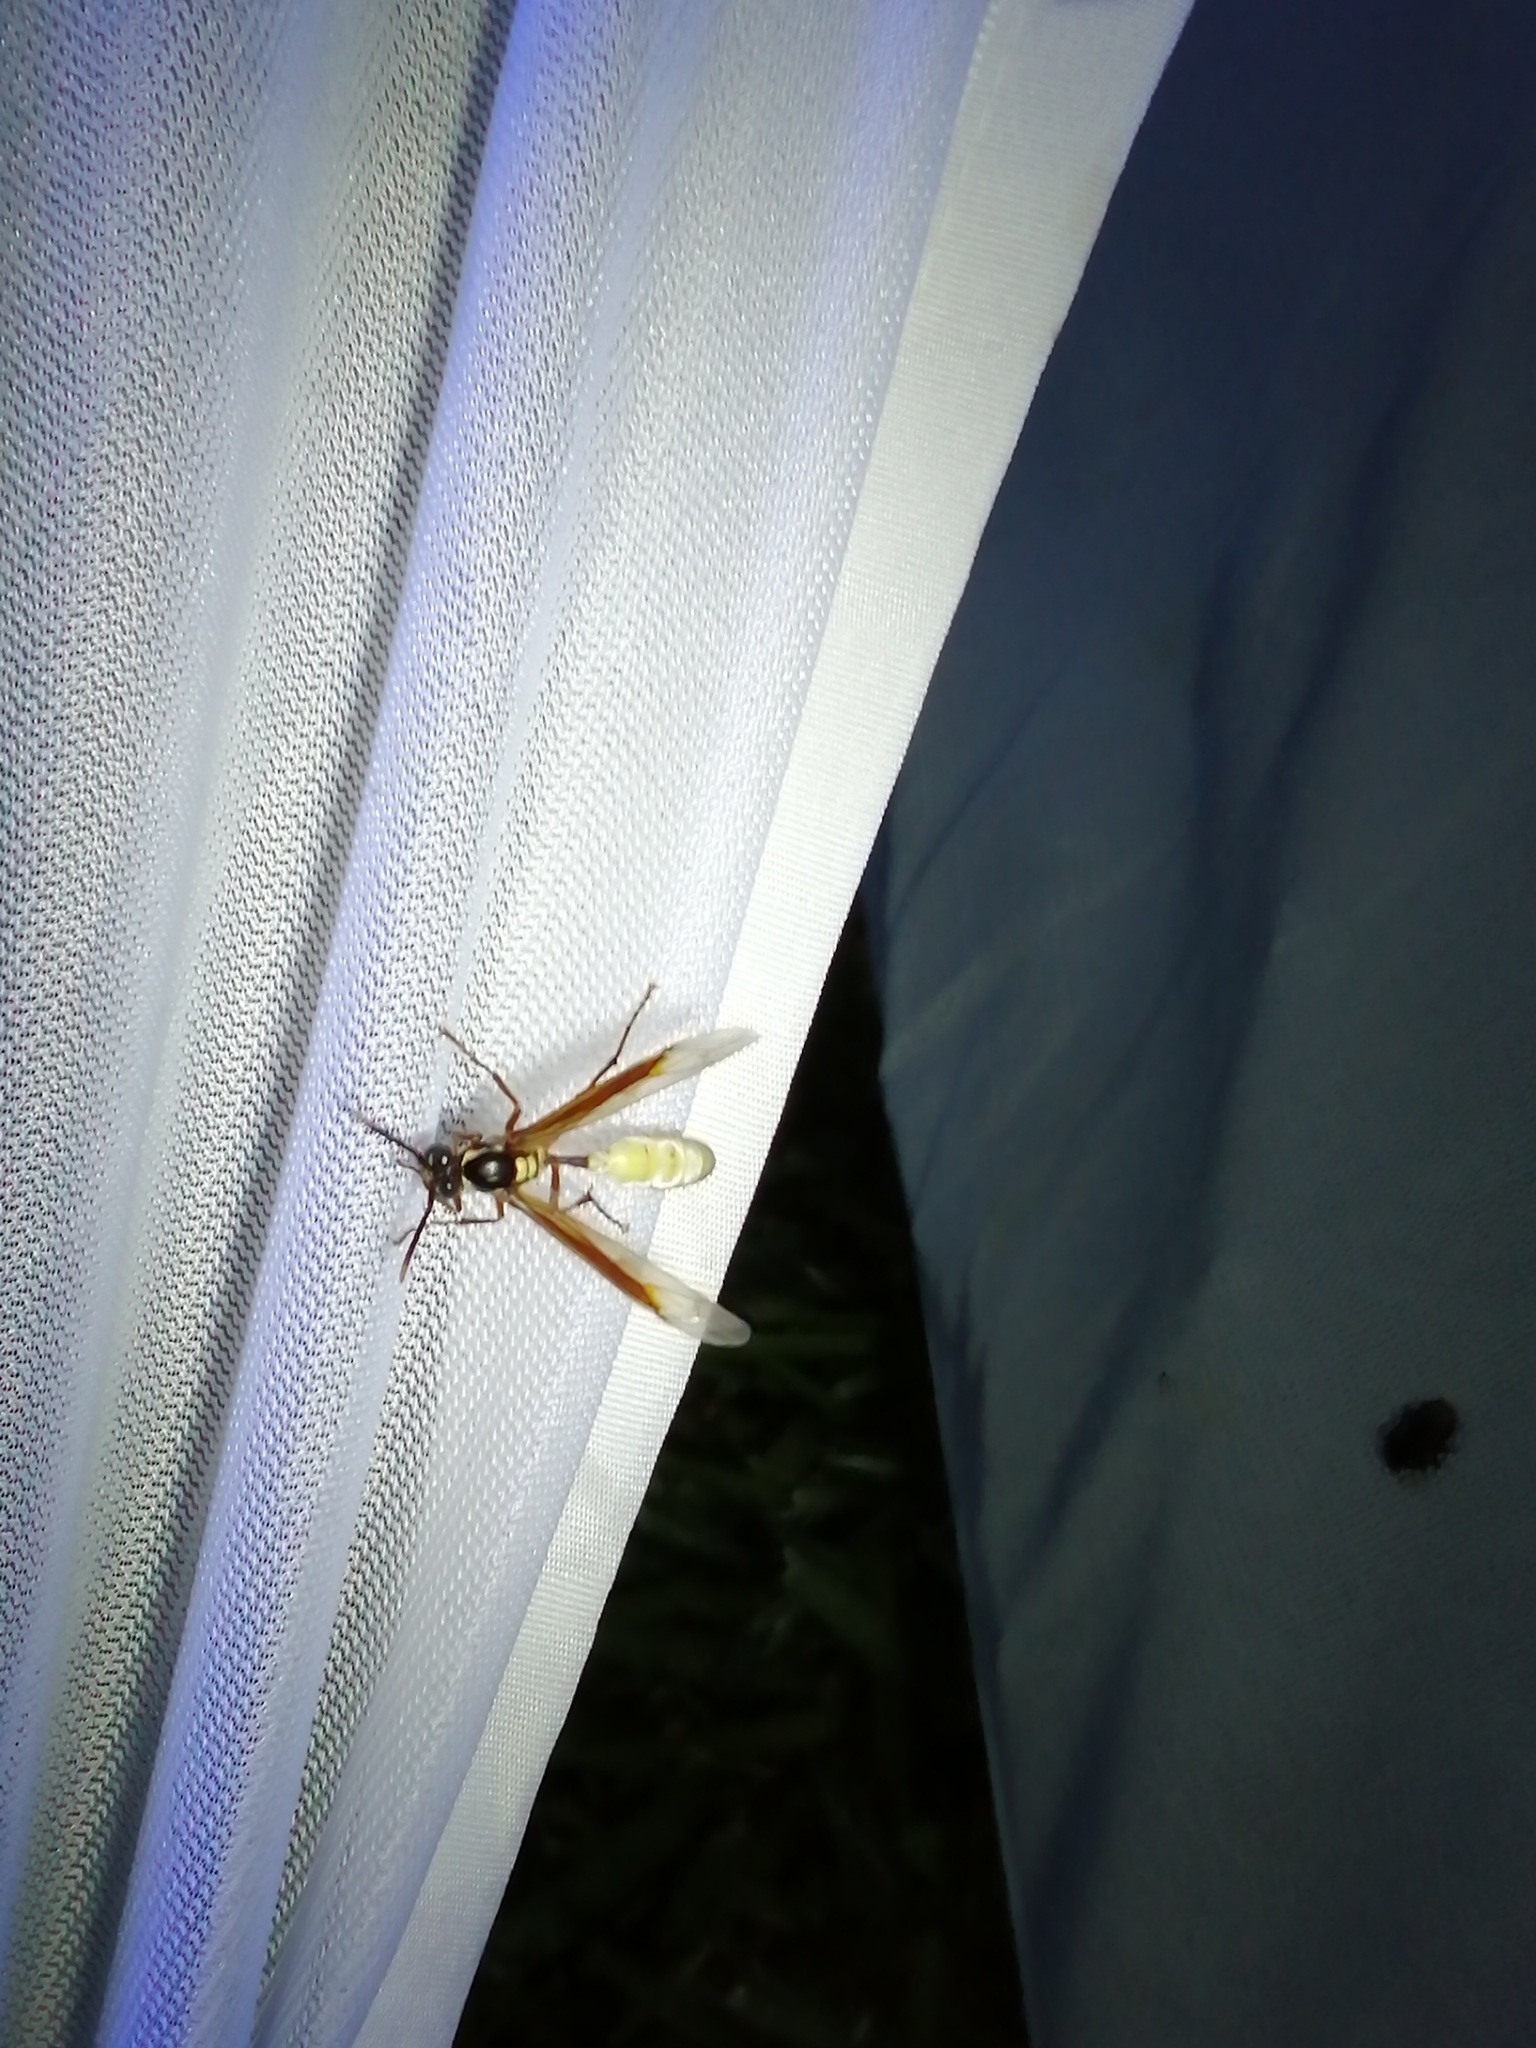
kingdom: Animalia
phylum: Arthropoda
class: Insecta
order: Hymenoptera
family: Vespidae
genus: Apoica
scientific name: Apoica pallens
